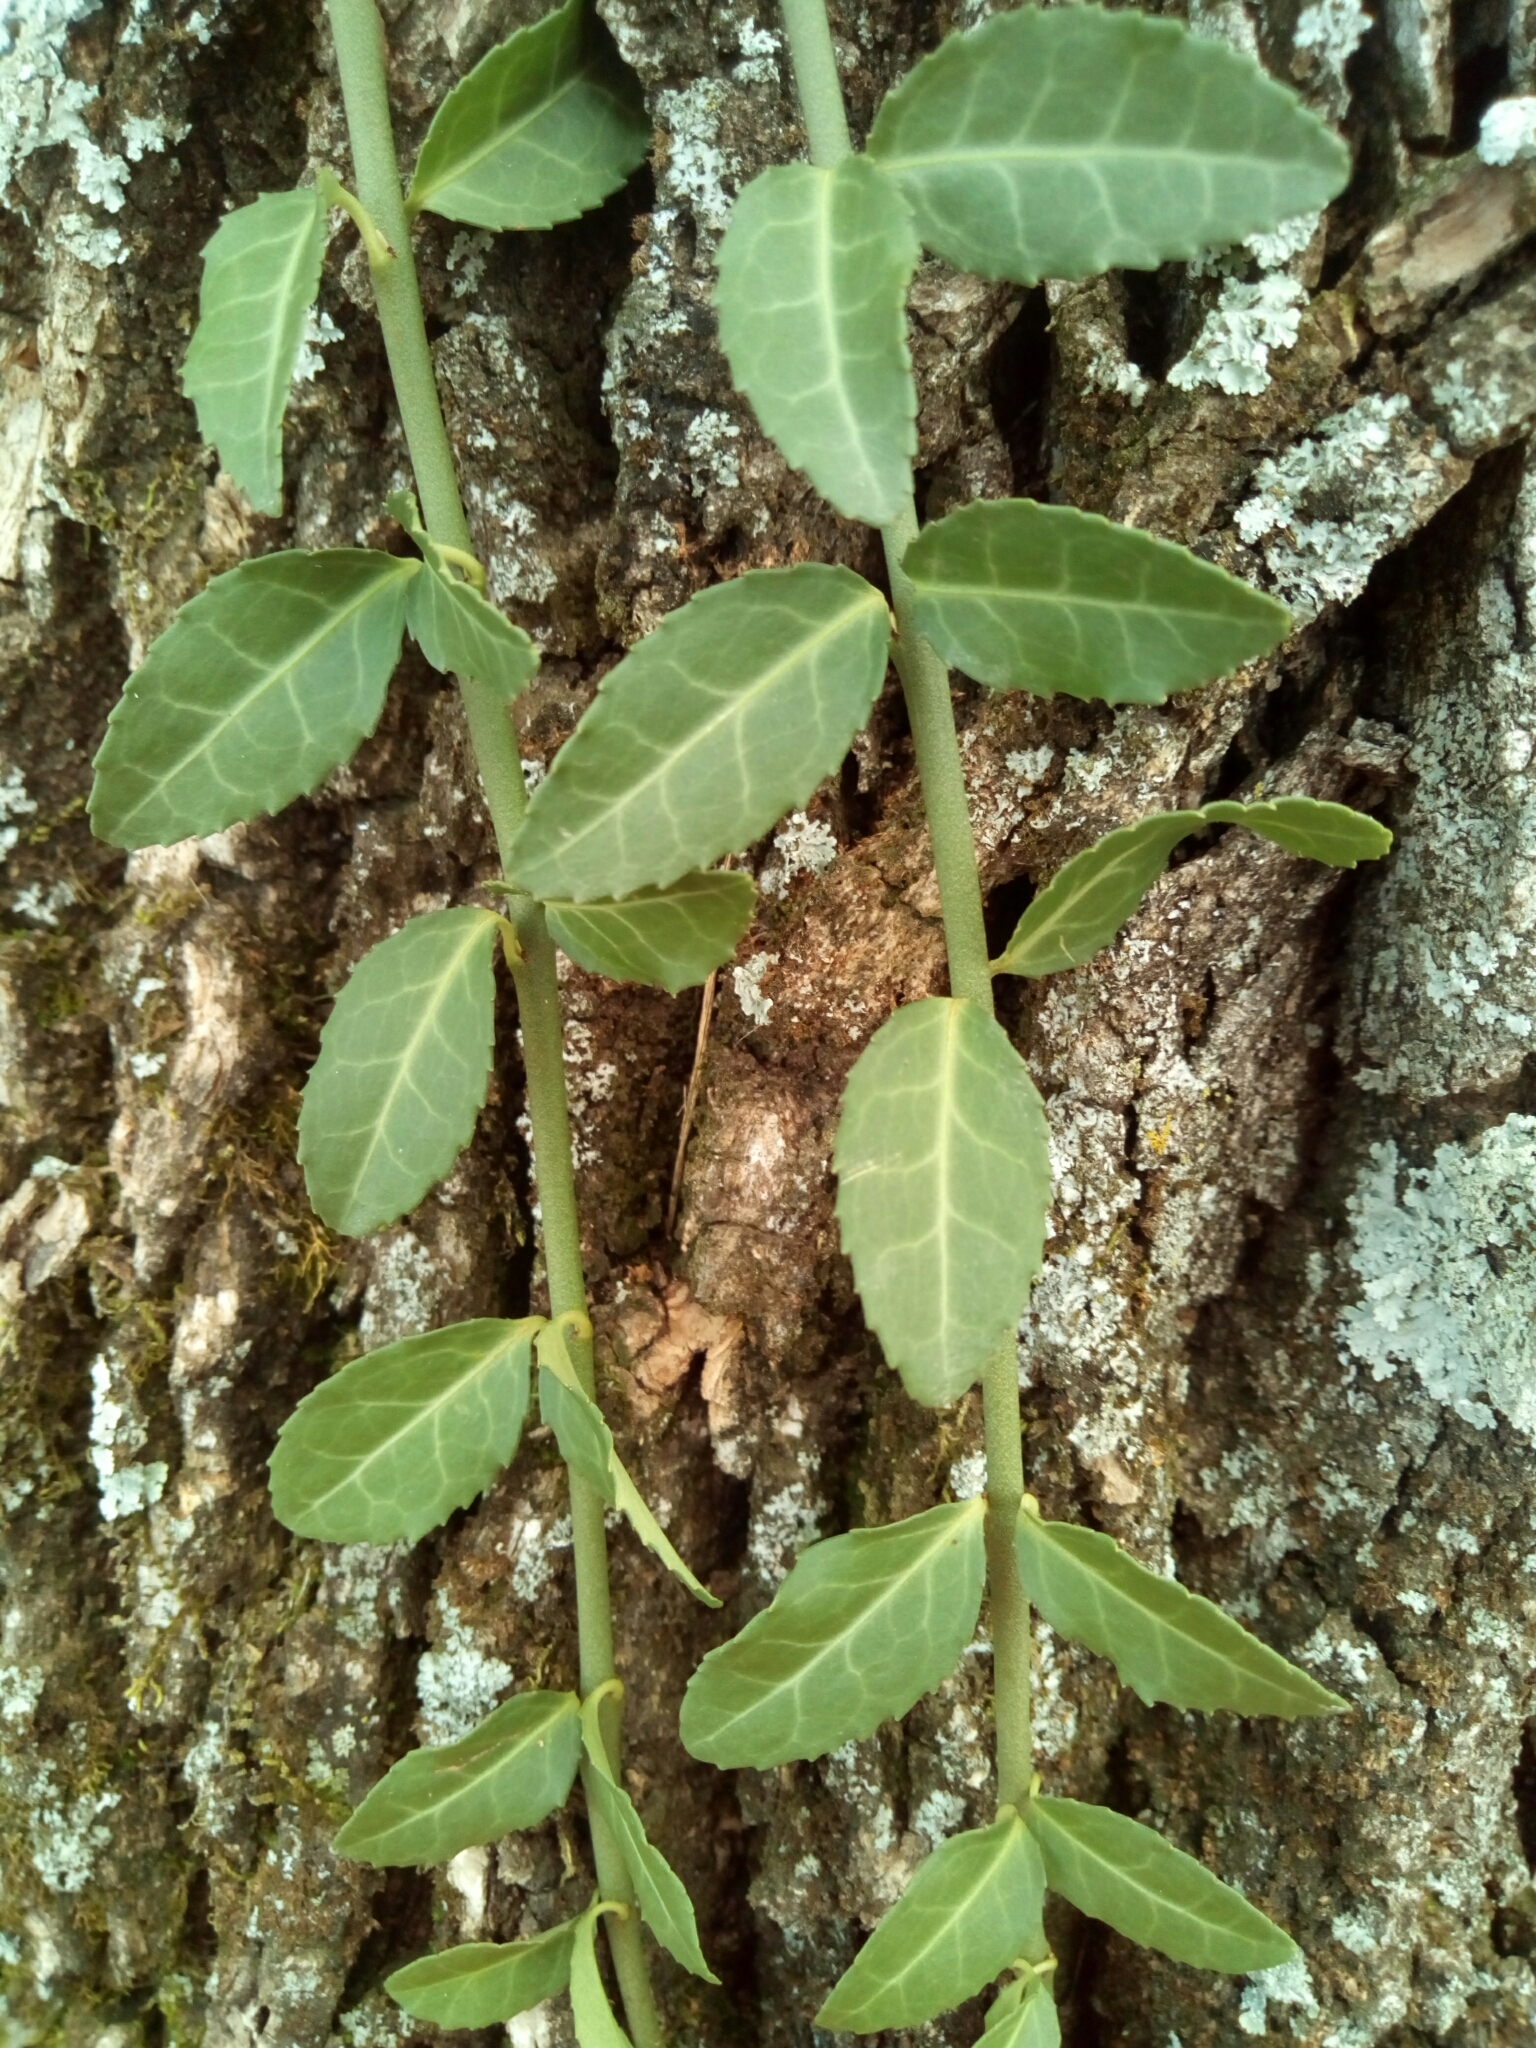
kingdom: Plantae
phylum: Tracheophyta
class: Magnoliopsida
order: Celastrales
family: Celastraceae
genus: Euonymus
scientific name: Euonymus fortunei
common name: Climbing euonymus
